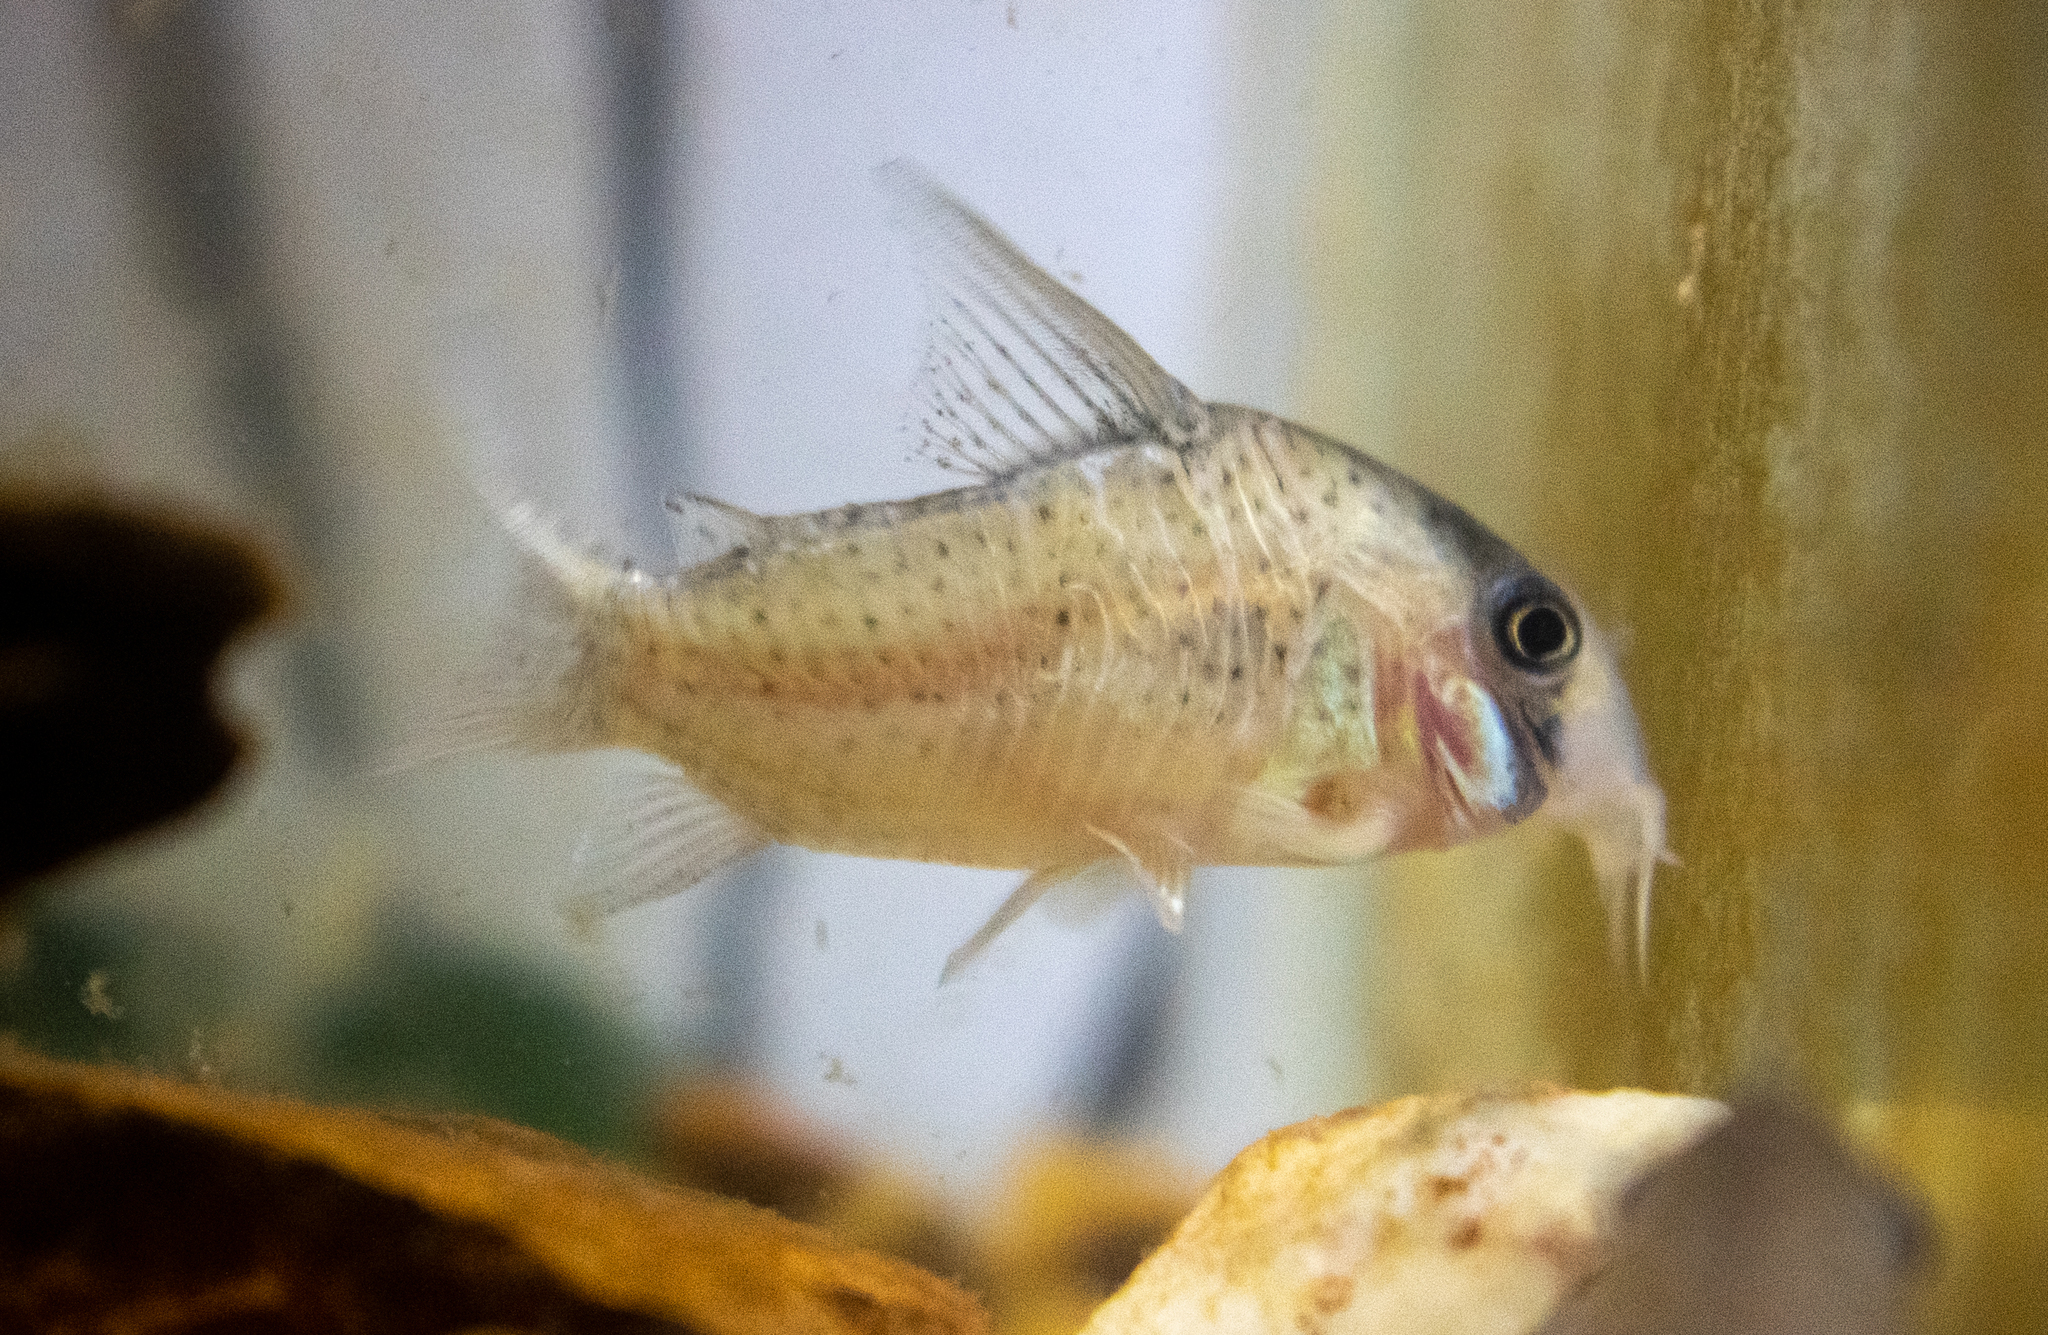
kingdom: Animalia
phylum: Chordata
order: Siluriformes
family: Callichthyidae
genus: Corydoras
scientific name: Corydoras kanei
